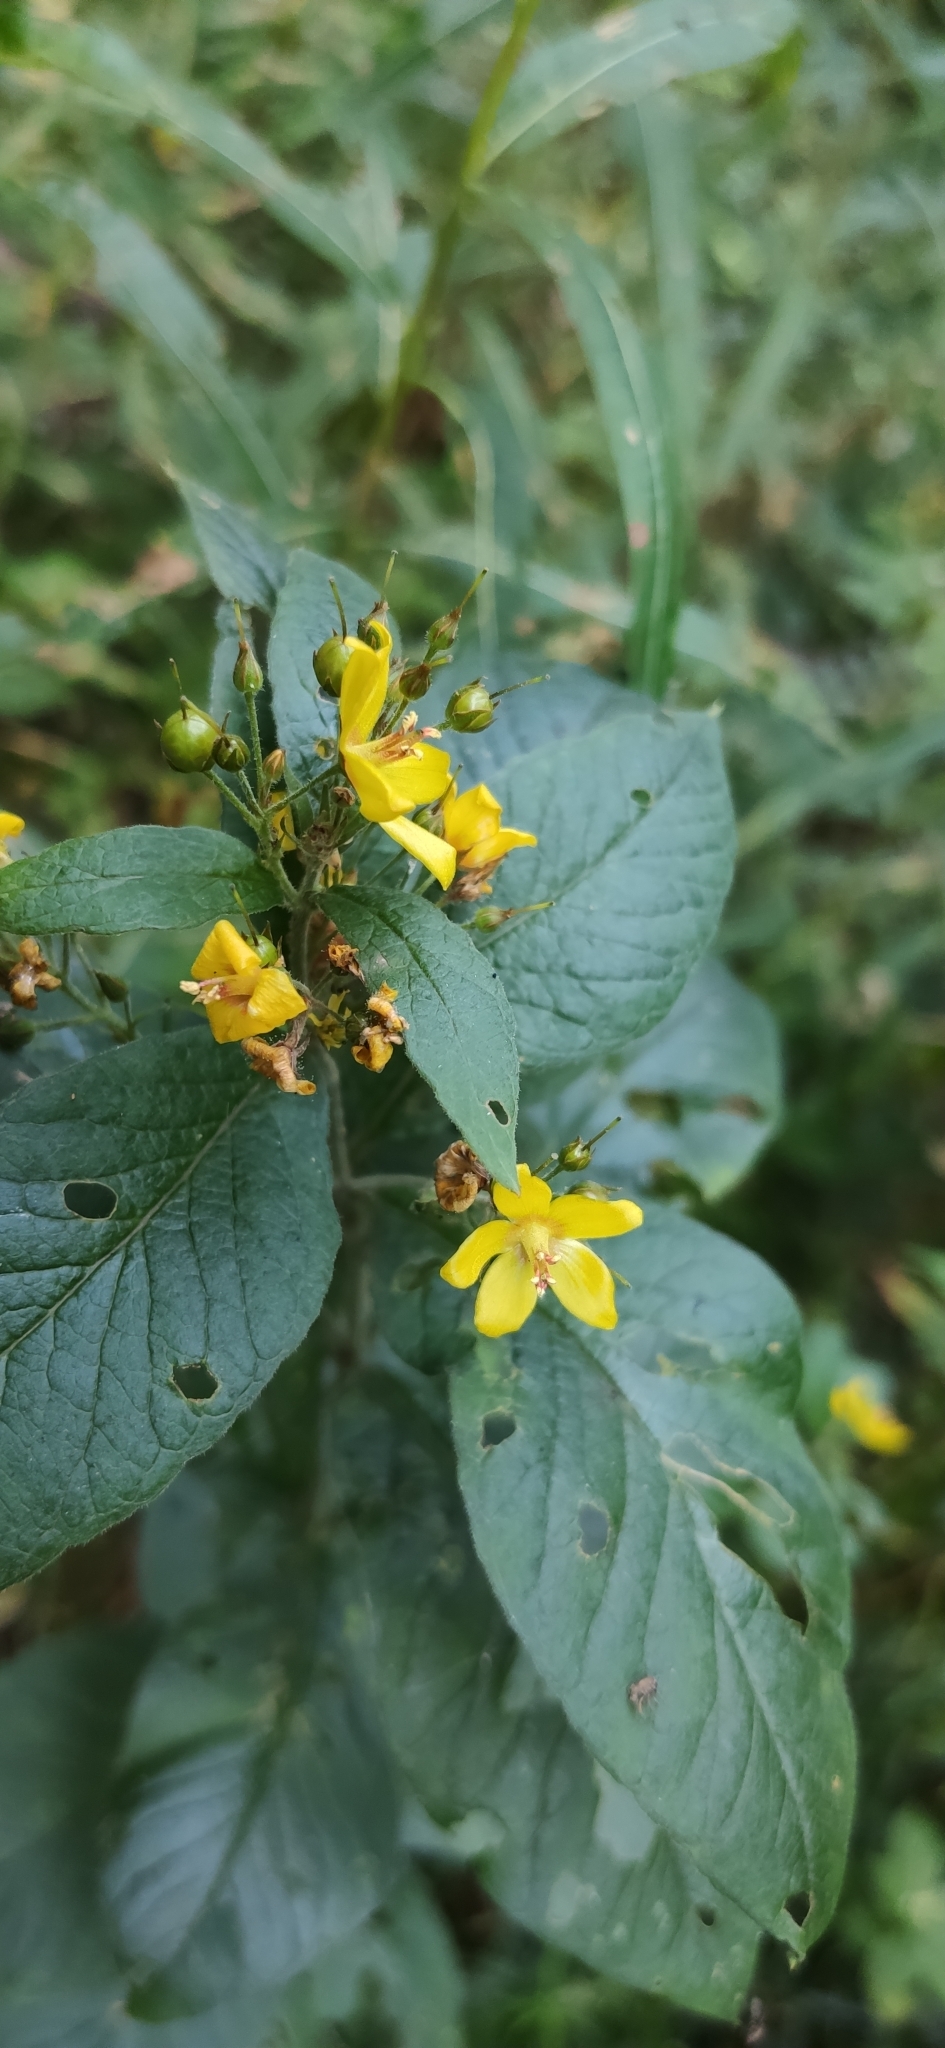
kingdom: Plantae
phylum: Tracheophyta
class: Magnoliopsida
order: Ericales
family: Primulaceae
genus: Lysimachia
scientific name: Lysimachia vulgaris
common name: Yellow loosestrife
